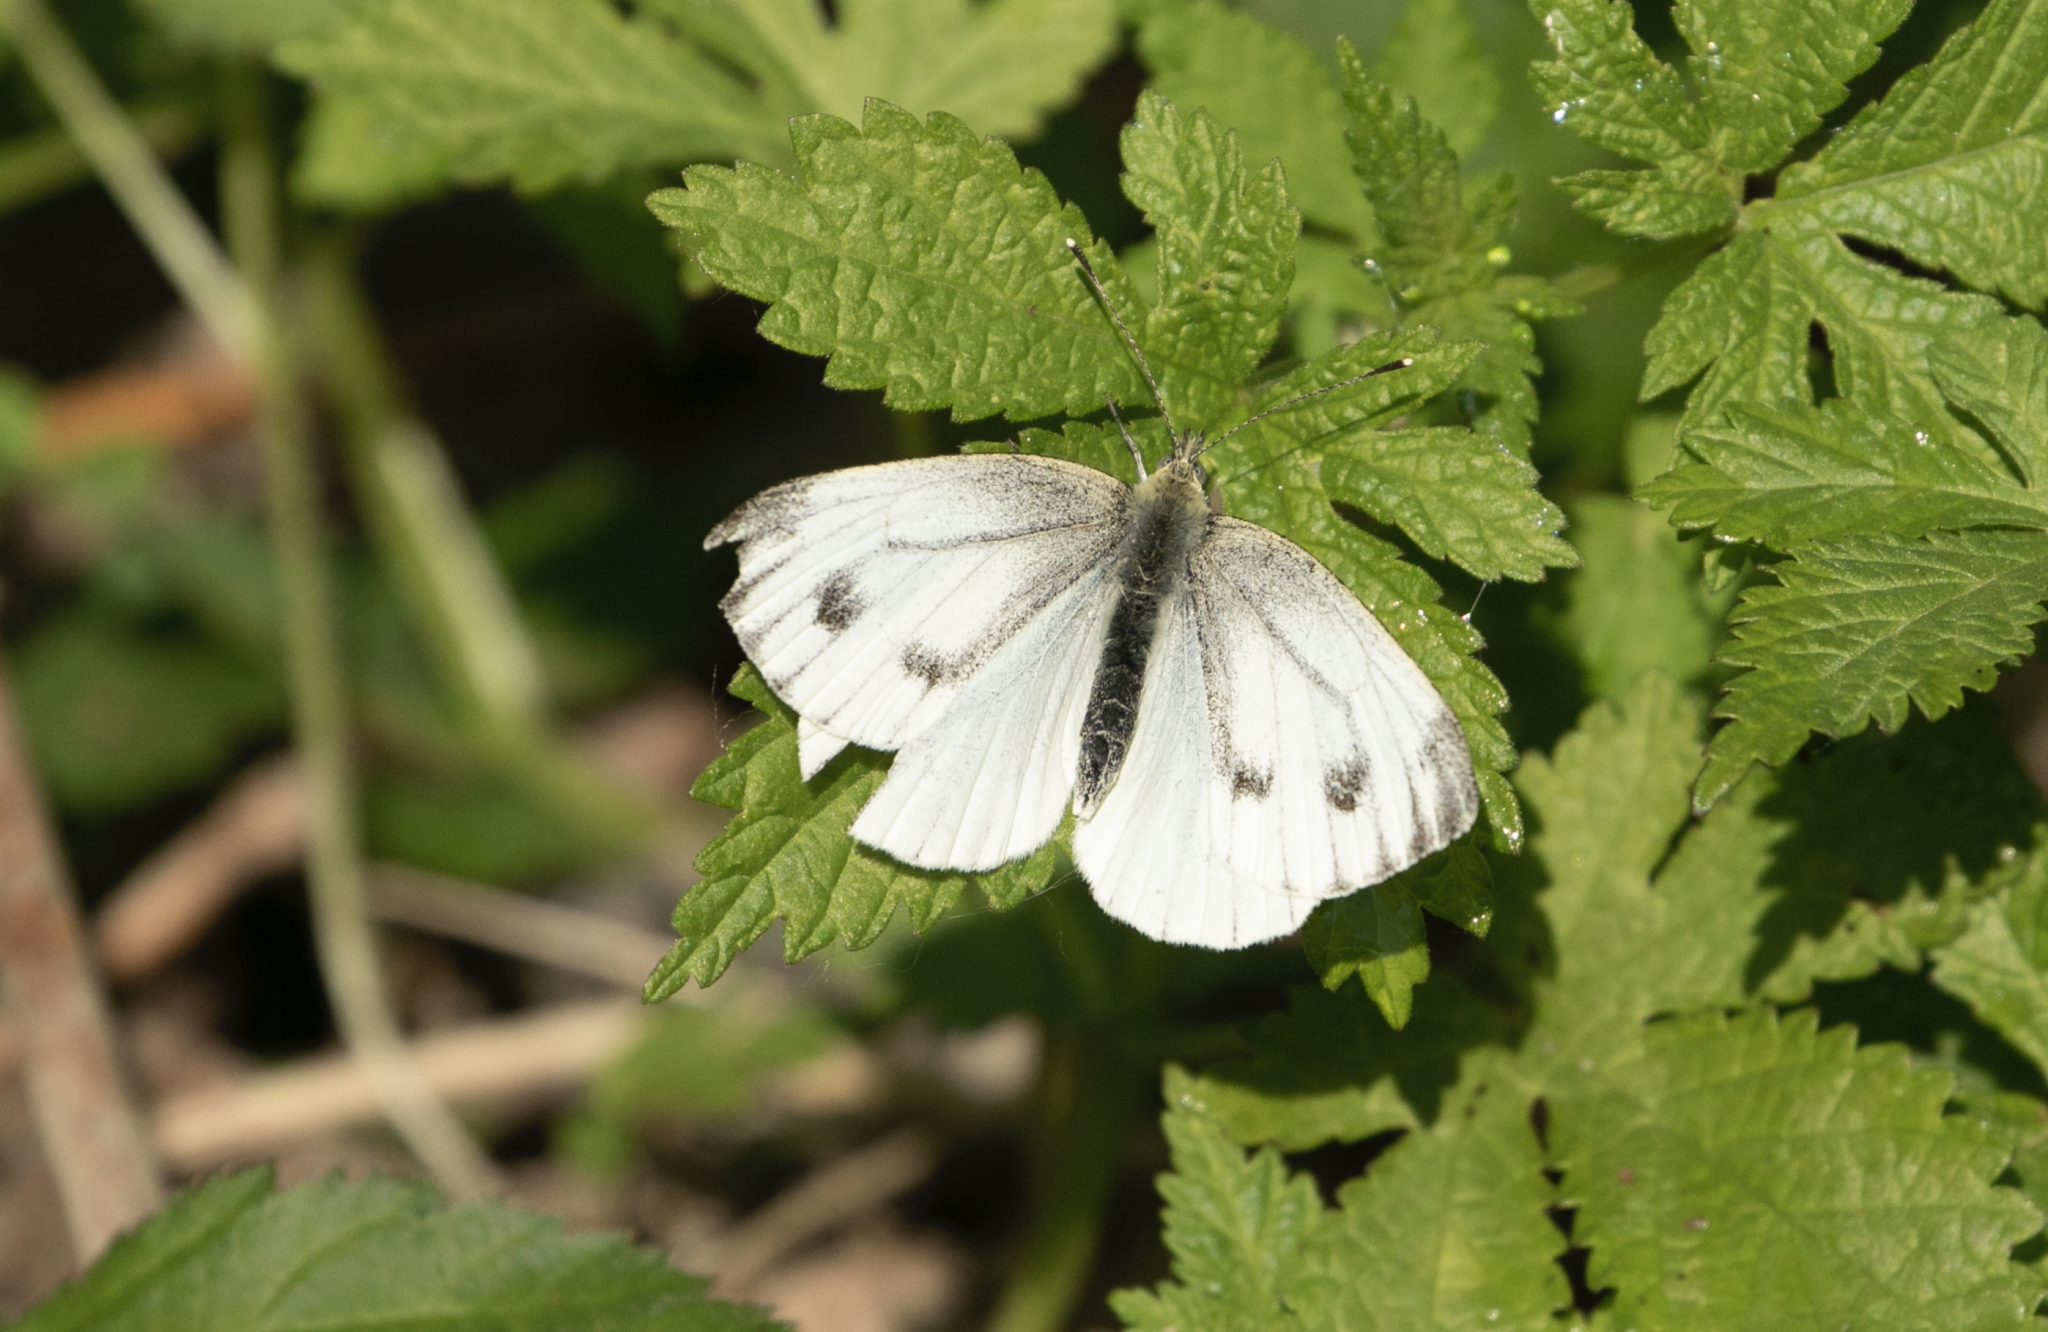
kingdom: Animalia
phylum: Arthropoda
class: Insecta
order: Lepidoptera
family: Pieridae
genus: Pieris
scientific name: Pieris napi
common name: Green-veined white
